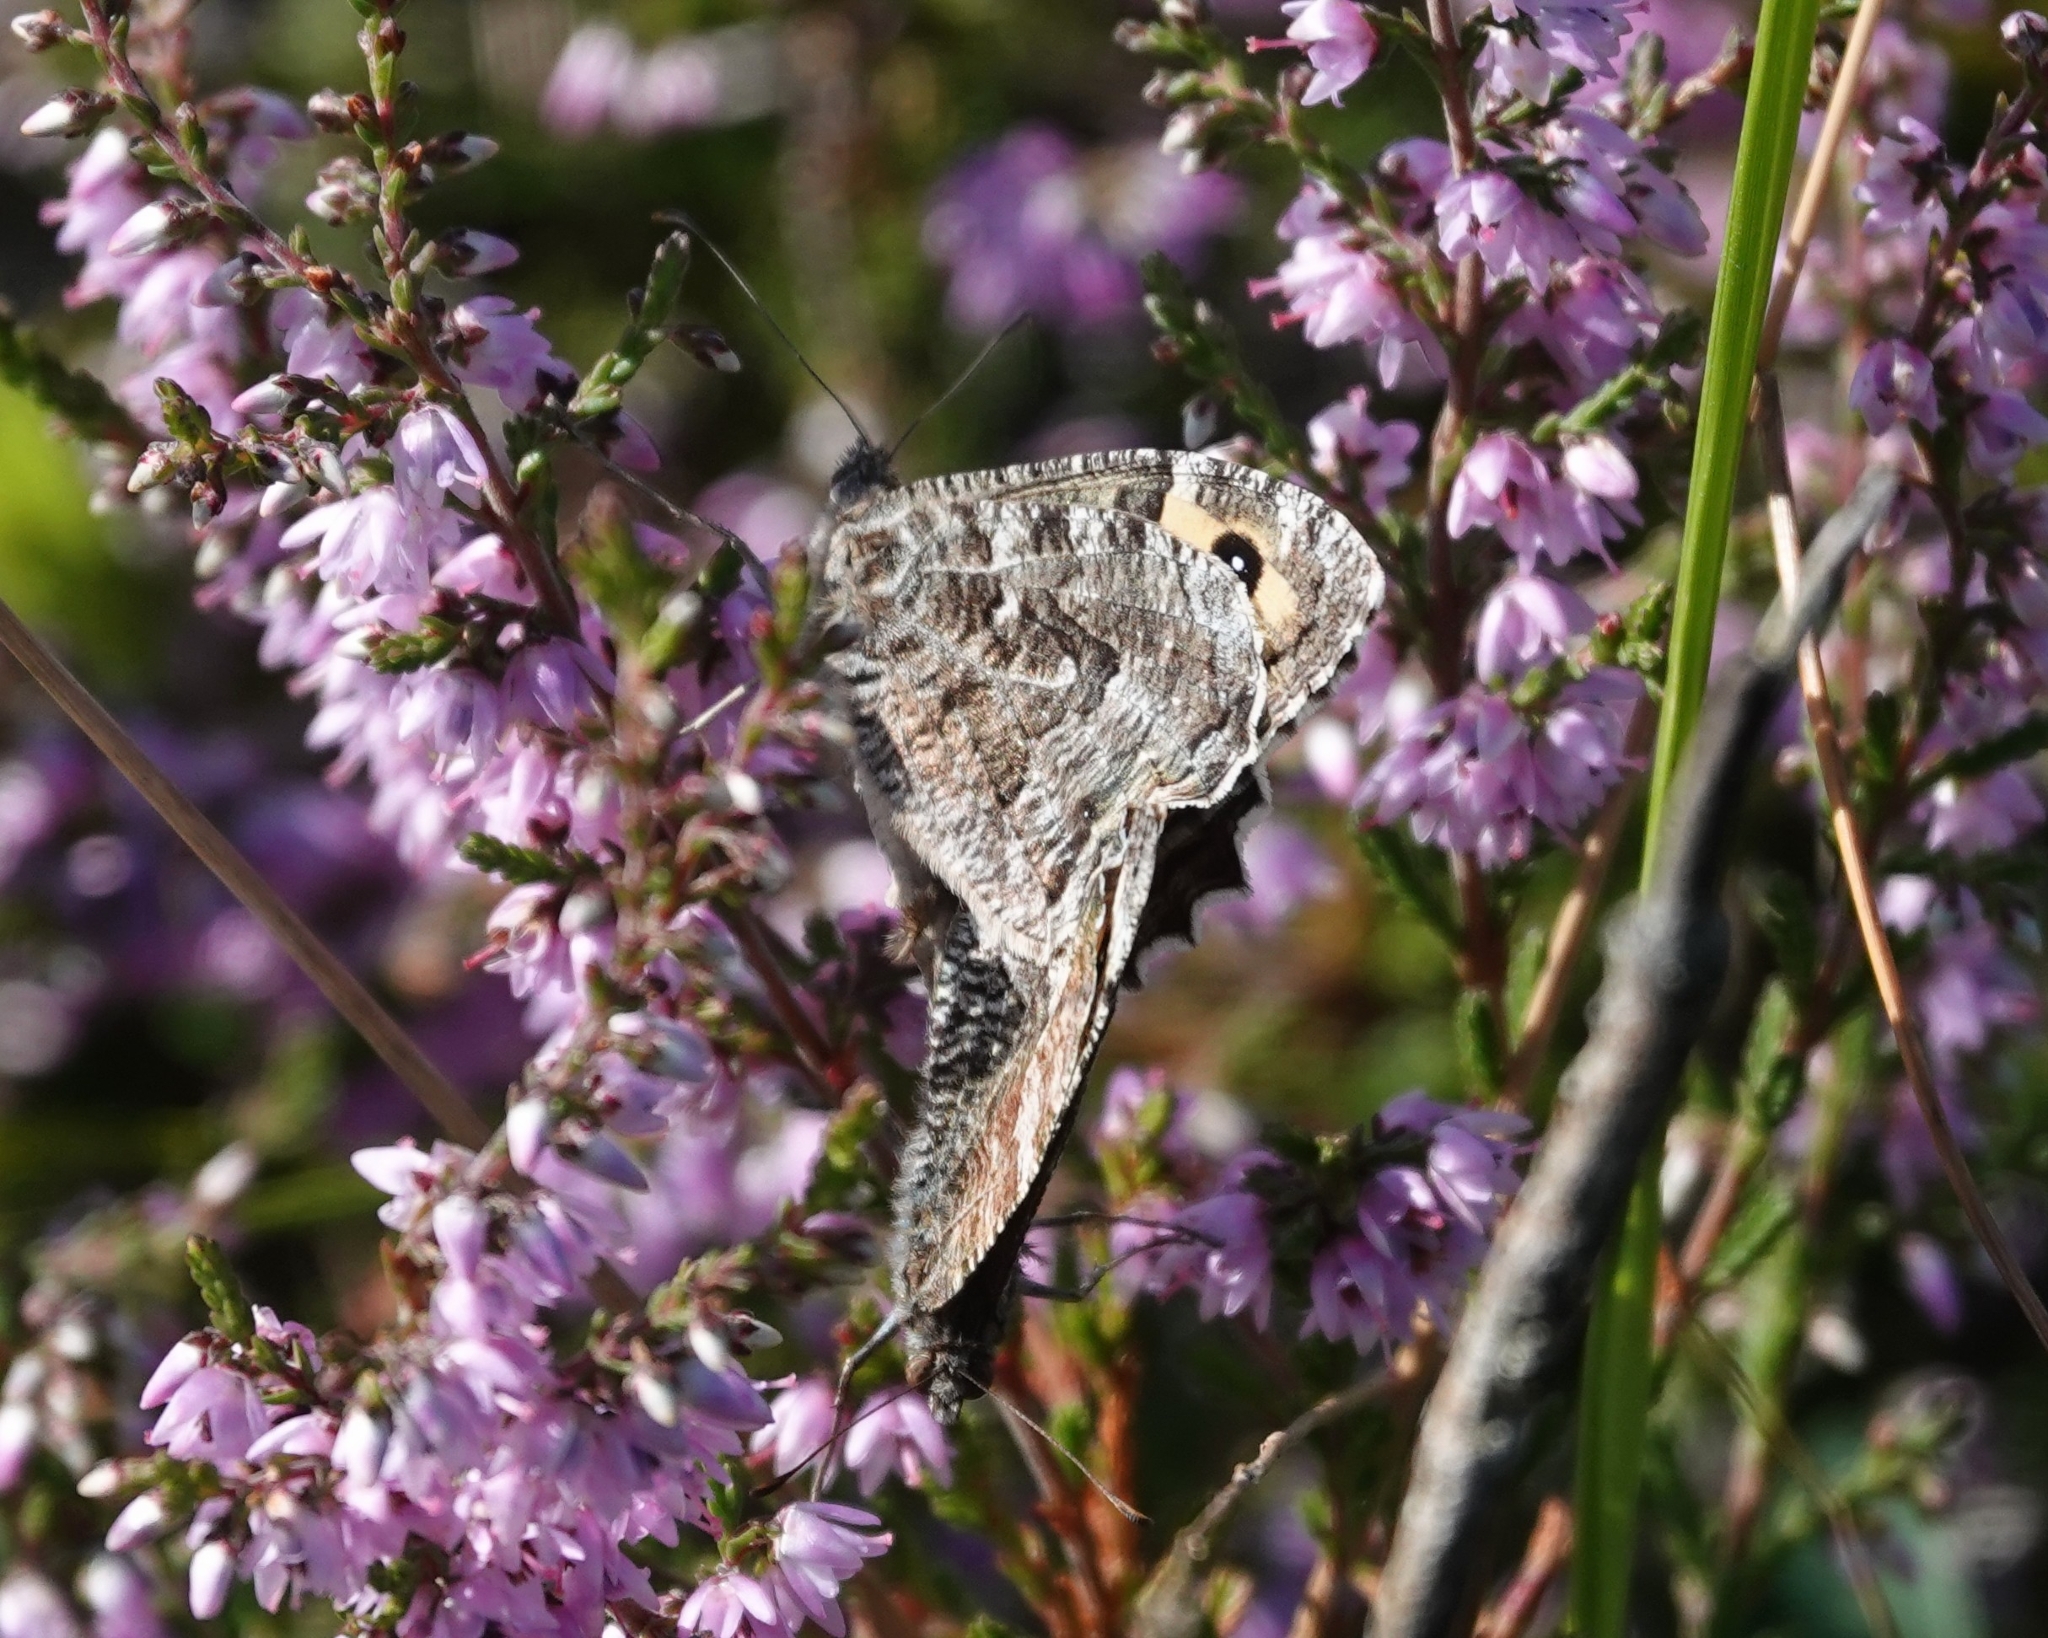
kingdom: Animalia
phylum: Arthropoda
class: Insecta
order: Lepidoptera
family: Nymphalidae
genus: Hipparchia
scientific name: Hipparchia semele
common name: Grayling
